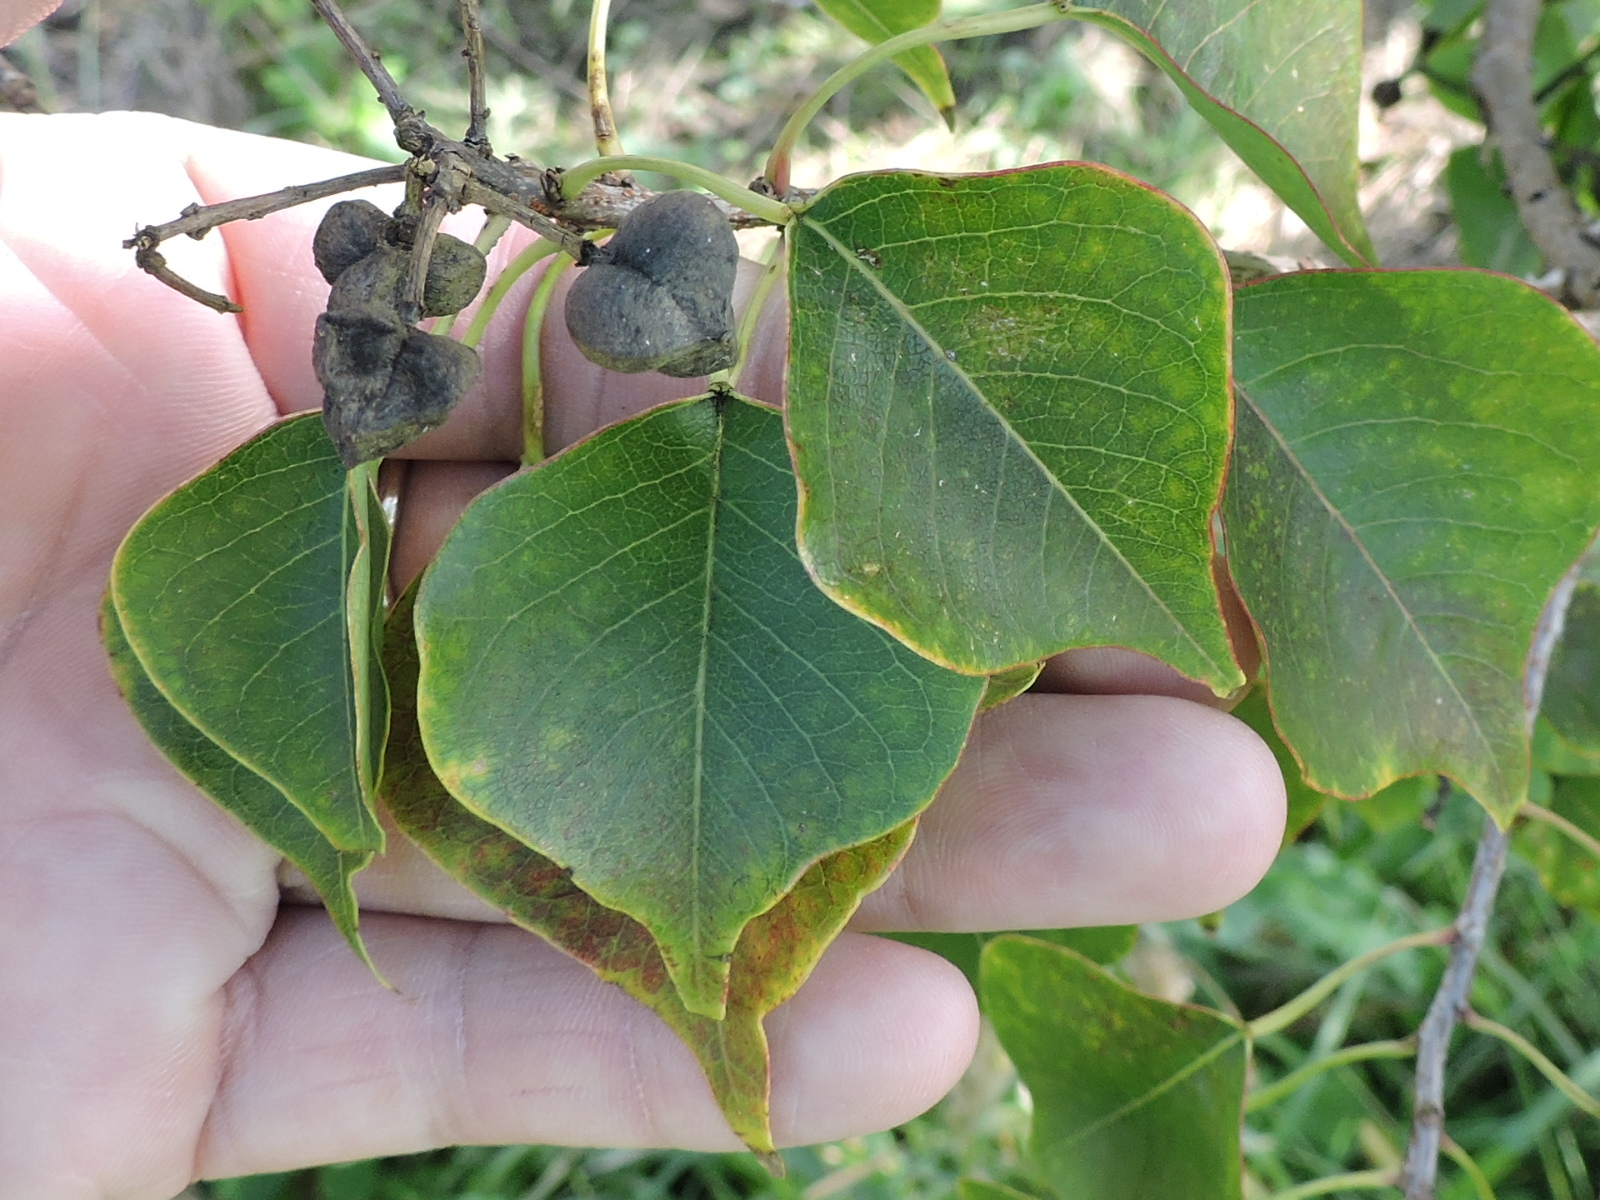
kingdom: Plantae
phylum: Tracheophyta
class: Magnoliopsida
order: Malpighiales
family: Euphorbiaceae
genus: Triadica
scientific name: Triadica sebifera
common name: Chinese tallow
